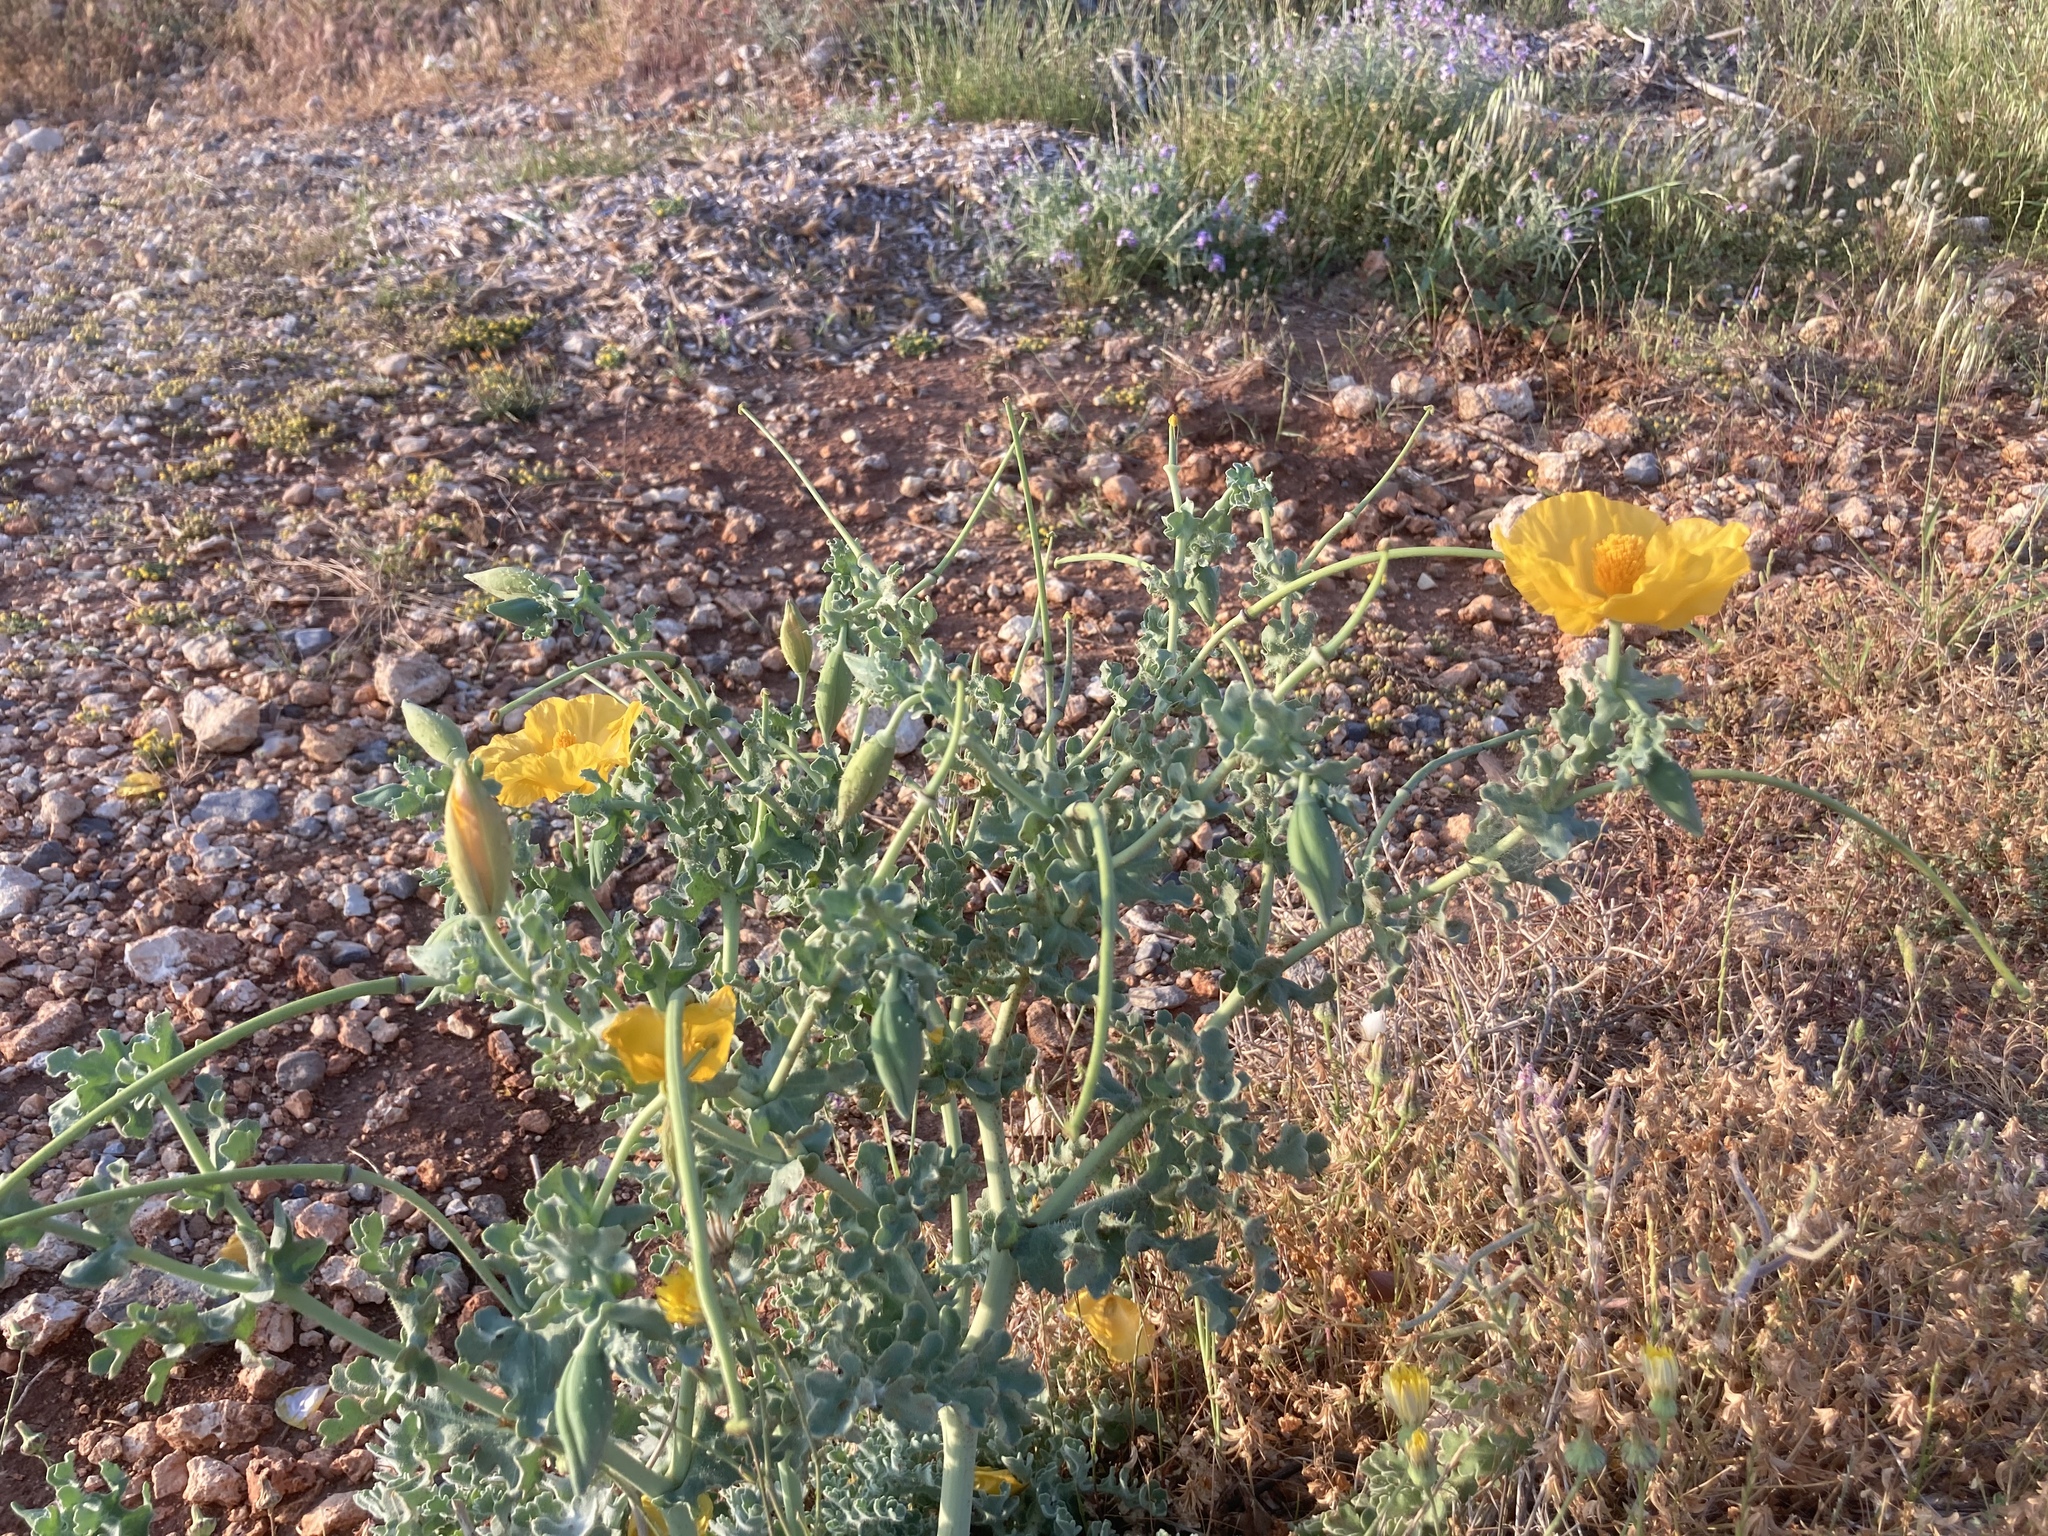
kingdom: Plantae
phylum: Tracheophyta
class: Magnoliopsida
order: Ranunculales
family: Papaveraceae
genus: Glaucium
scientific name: Glaucium flavum
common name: Yellow horned-poppy
